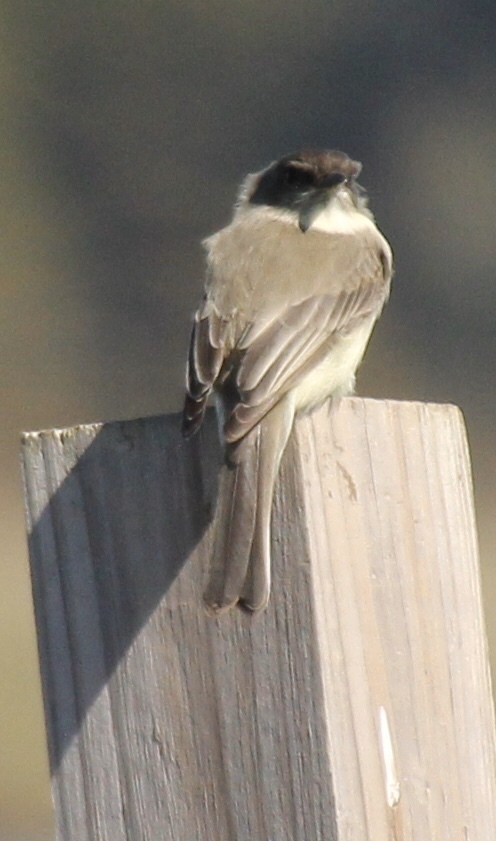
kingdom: Animalia
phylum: Chordata
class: Aves
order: Passeriformes
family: Tyrannidae
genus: Sayornis
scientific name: Sayornis phoebe
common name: Eastern phoebe
